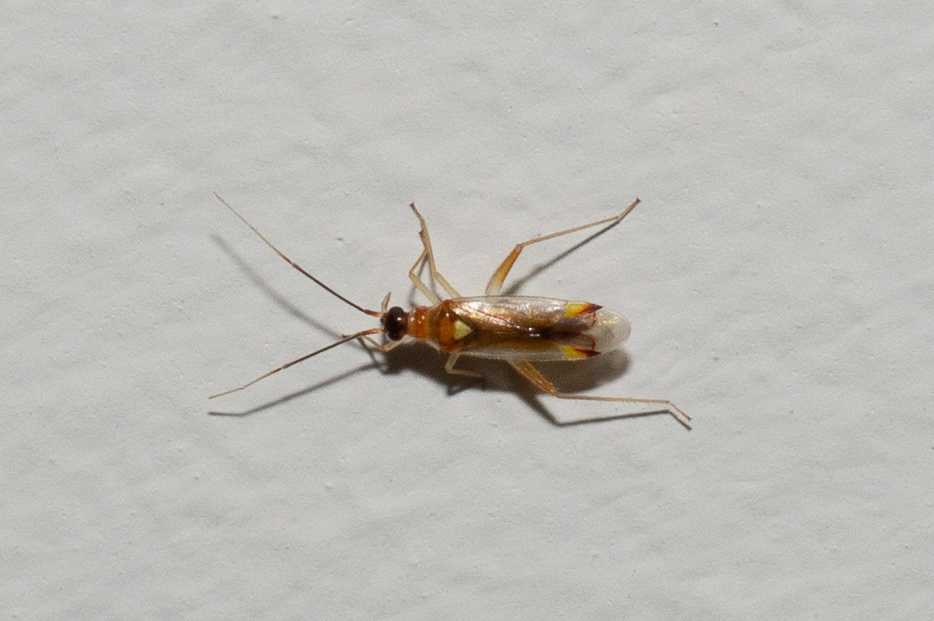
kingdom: Animalia
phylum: Arthropoda
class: Insecta
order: Hemiptera
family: Miridae
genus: Campyloneura
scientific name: Campyloneura virgula
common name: Predatory bug
